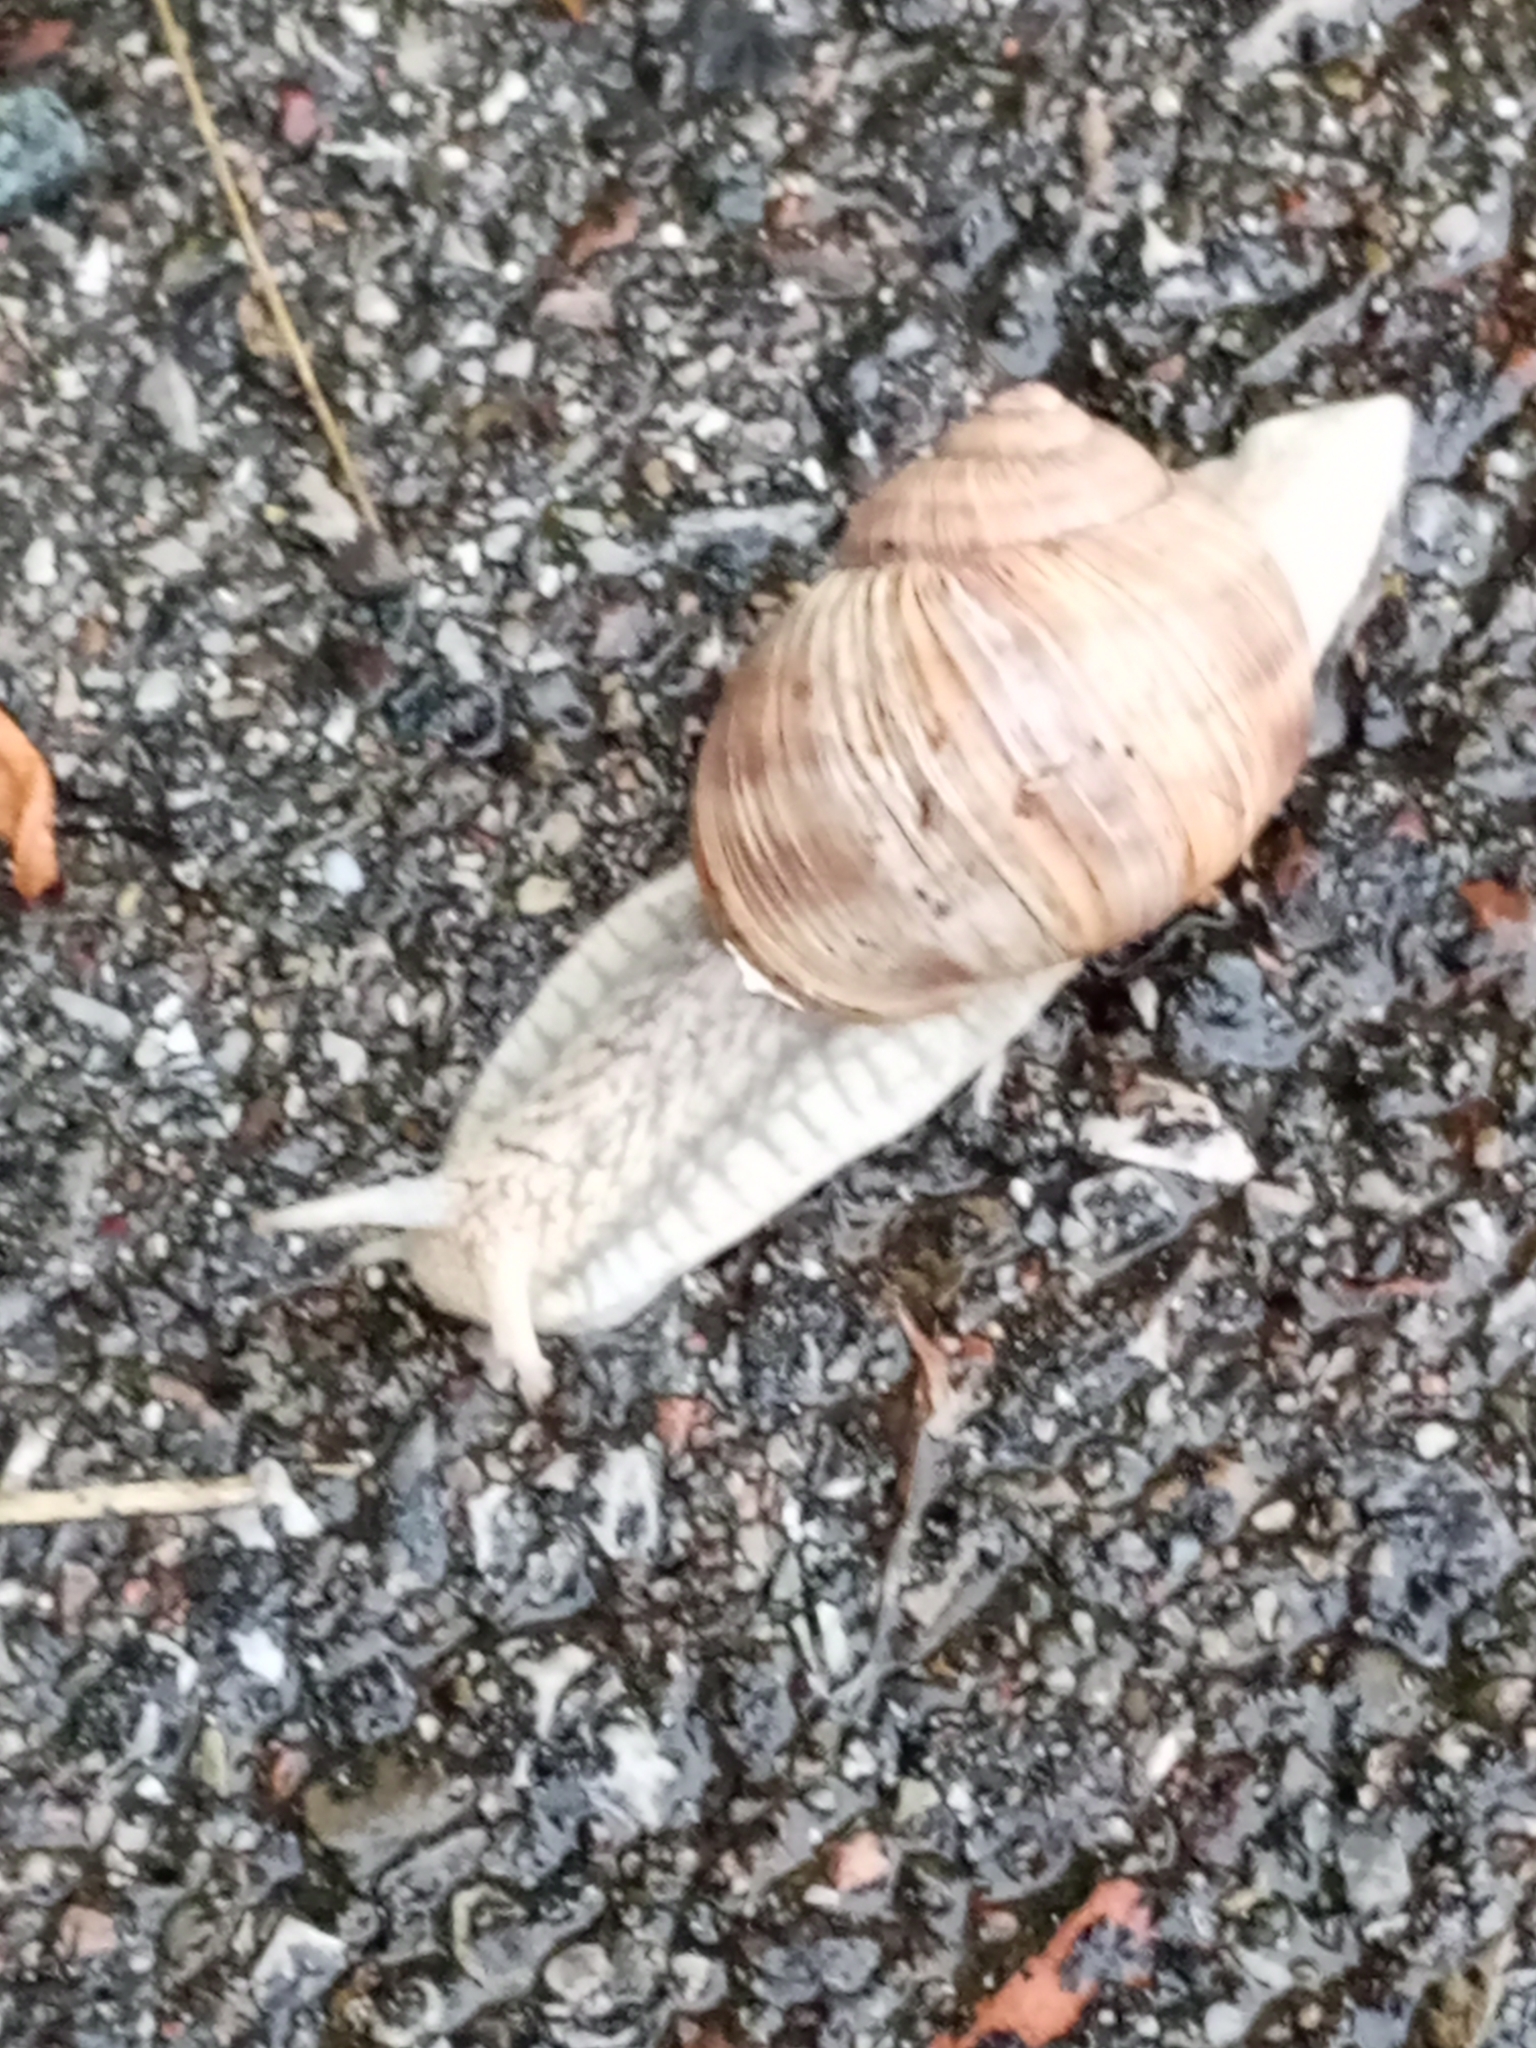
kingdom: Animalia
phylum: Mollusca
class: Gastropoda
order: Stylommatophora
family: Helicidae
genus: Helix
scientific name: Helix pomatia
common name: Roman snail
